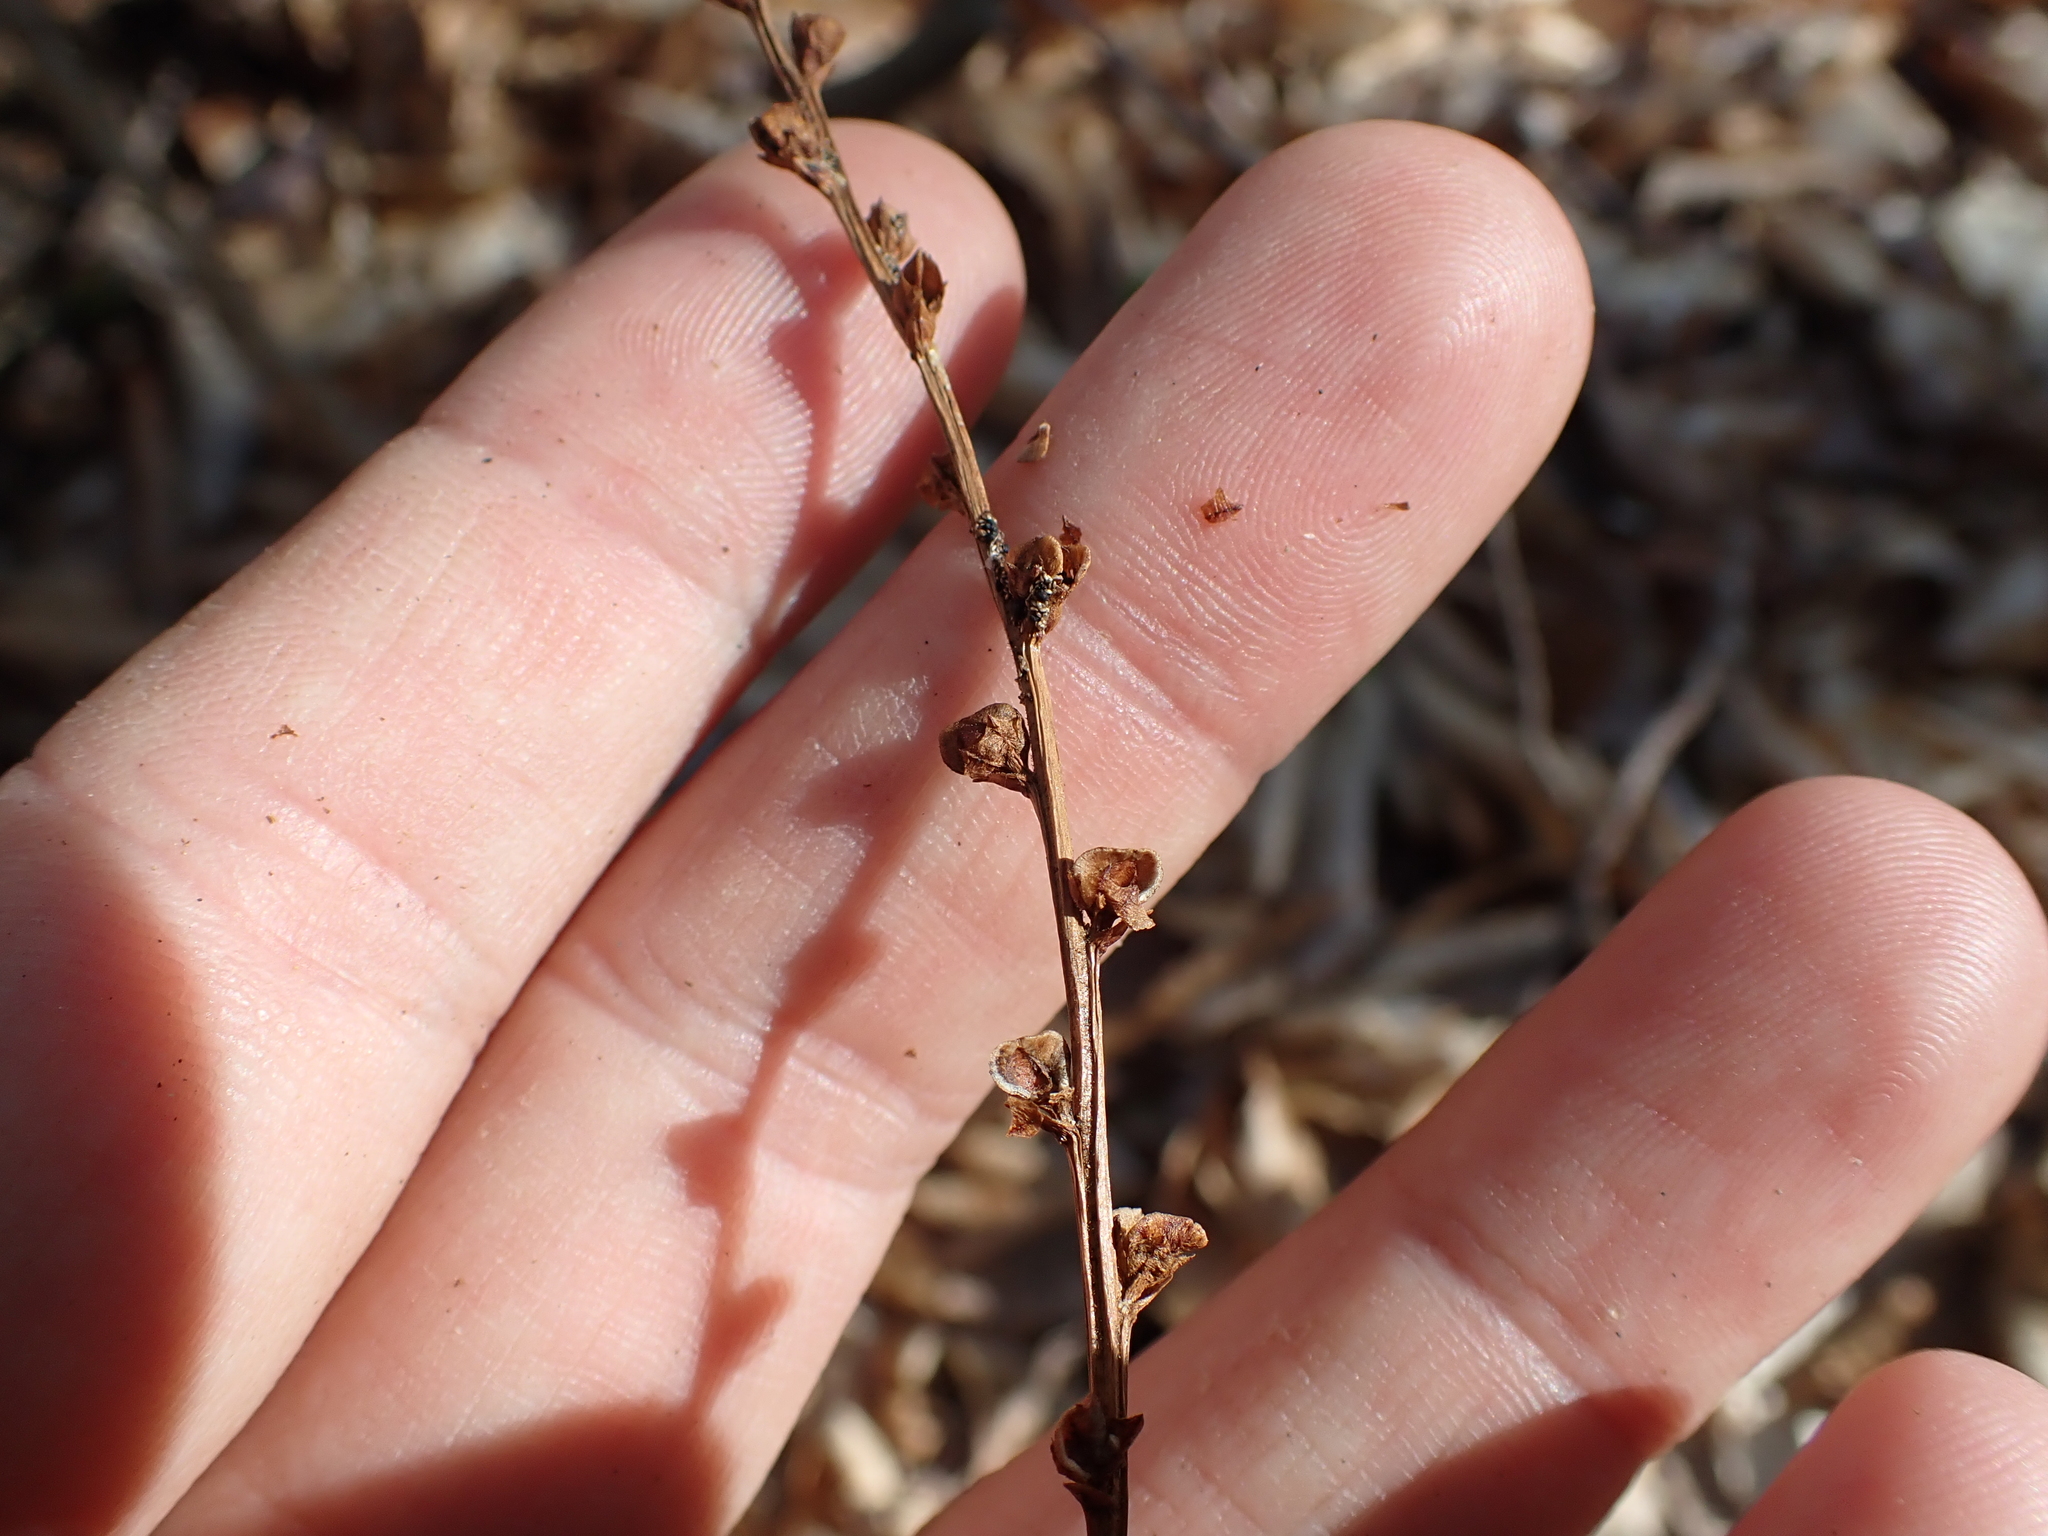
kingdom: Plantae
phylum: Tracheophyta
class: Magnoliopsida
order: Lamiales
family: Orobanchaceae
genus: Epifagus
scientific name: Epifagus virginiana
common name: Beechdrops
